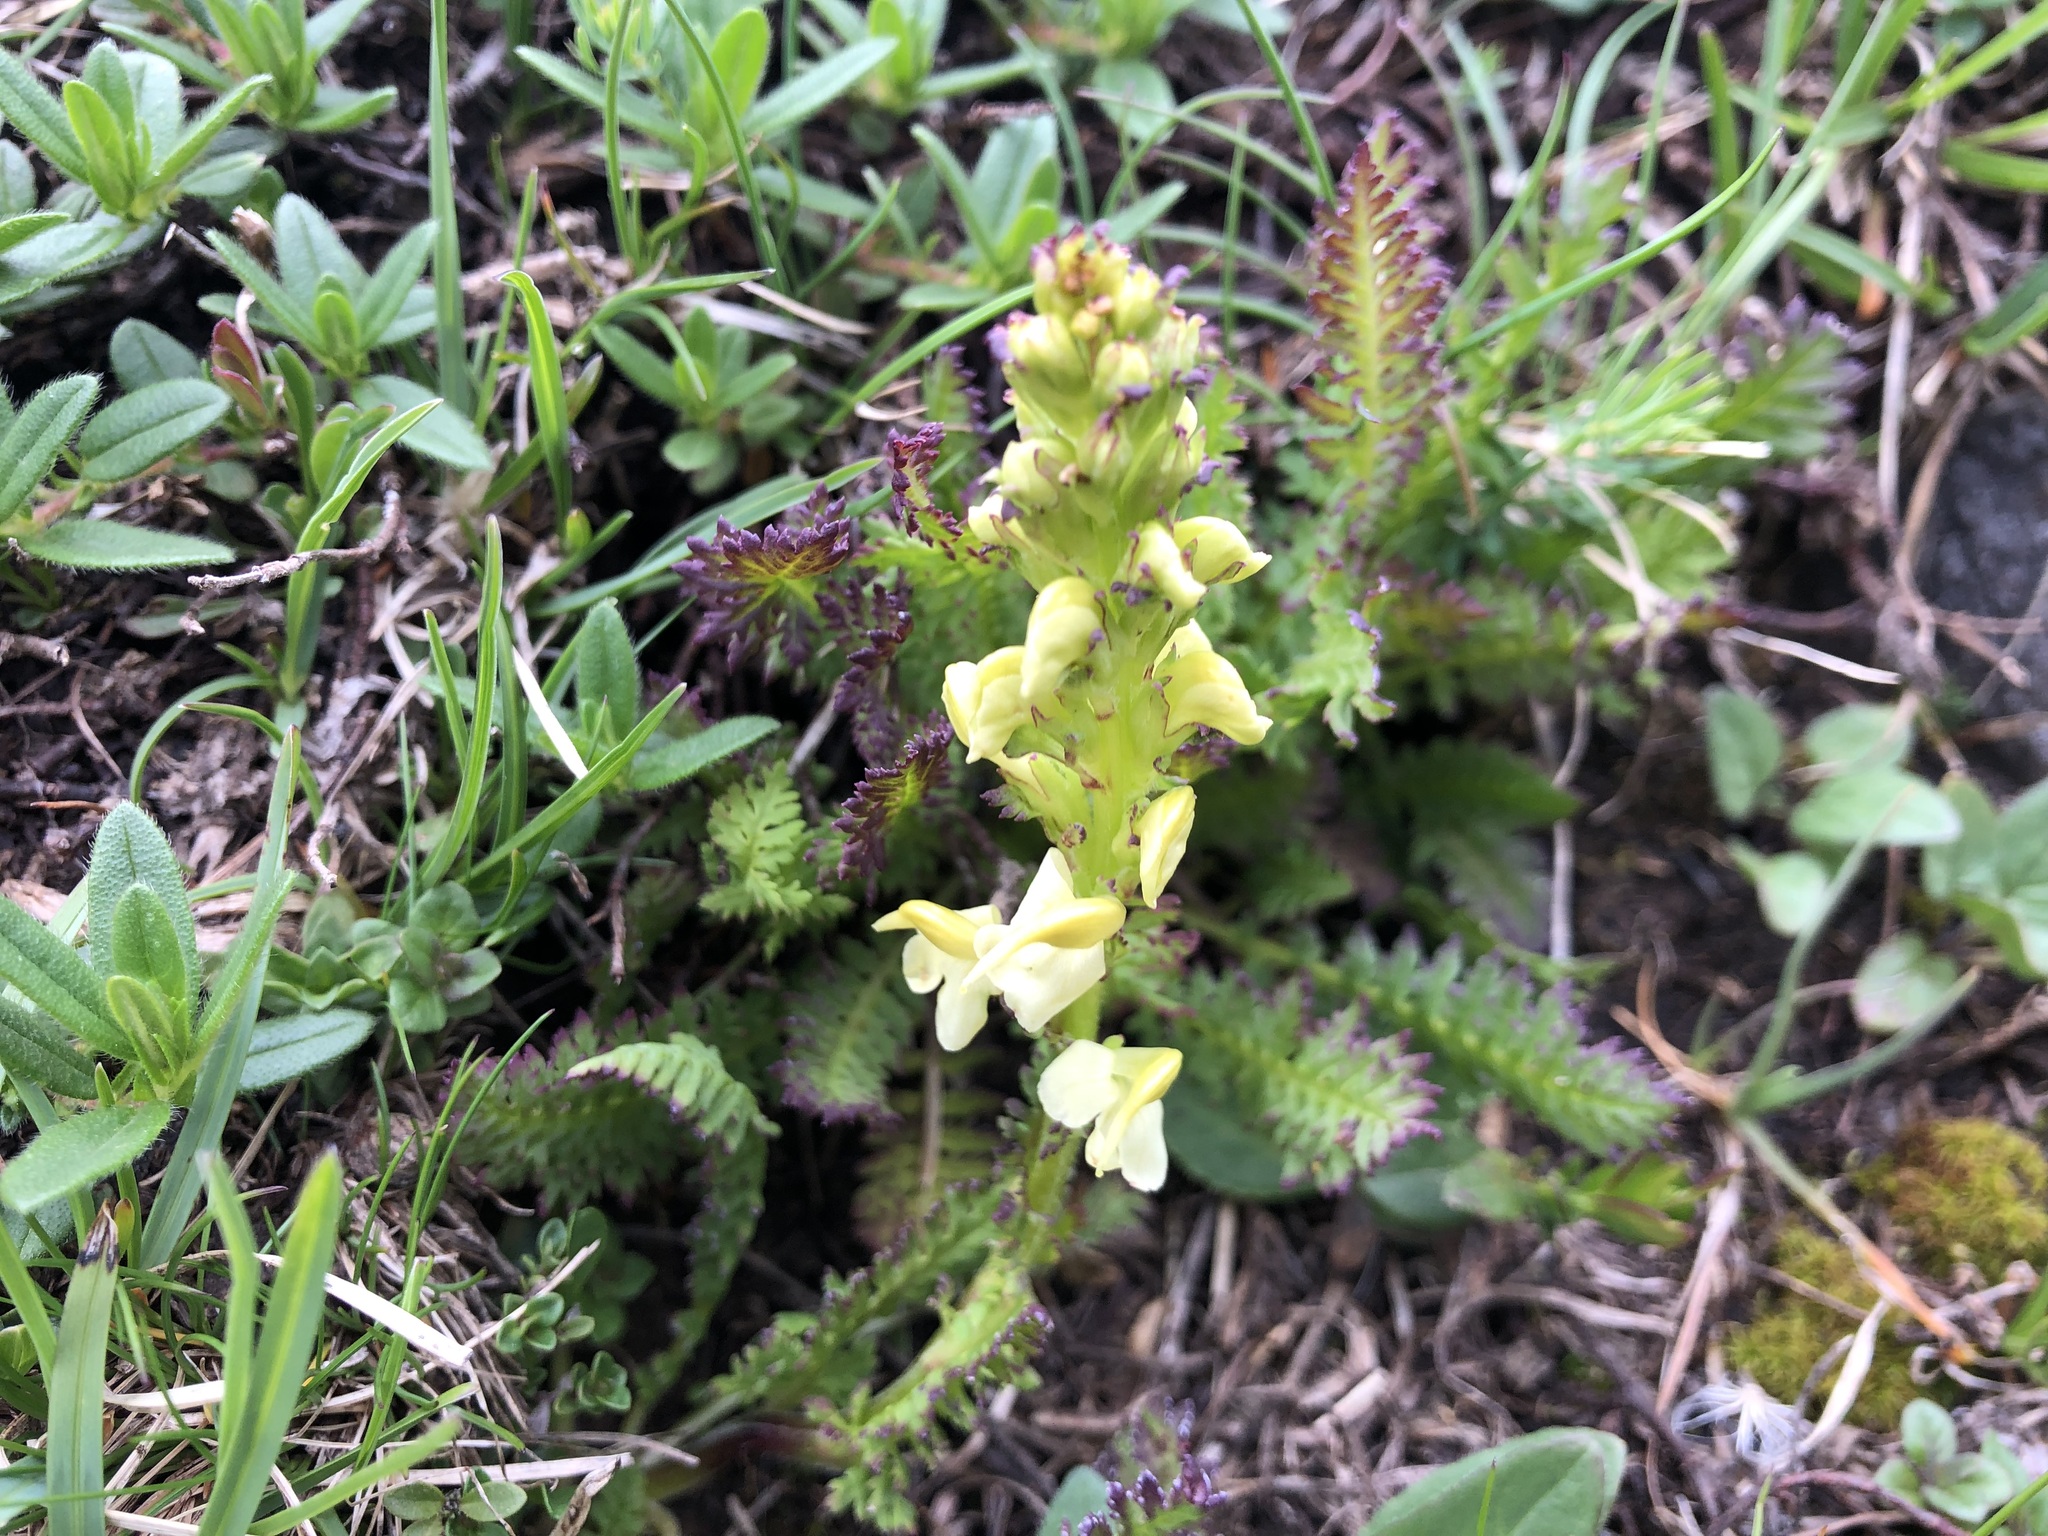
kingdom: Plantae
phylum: Tracheophyta
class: Magnoliopsida
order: Lamiales
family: Orobanchaceae
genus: Pedicularis
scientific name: Pedicularis ascendens
